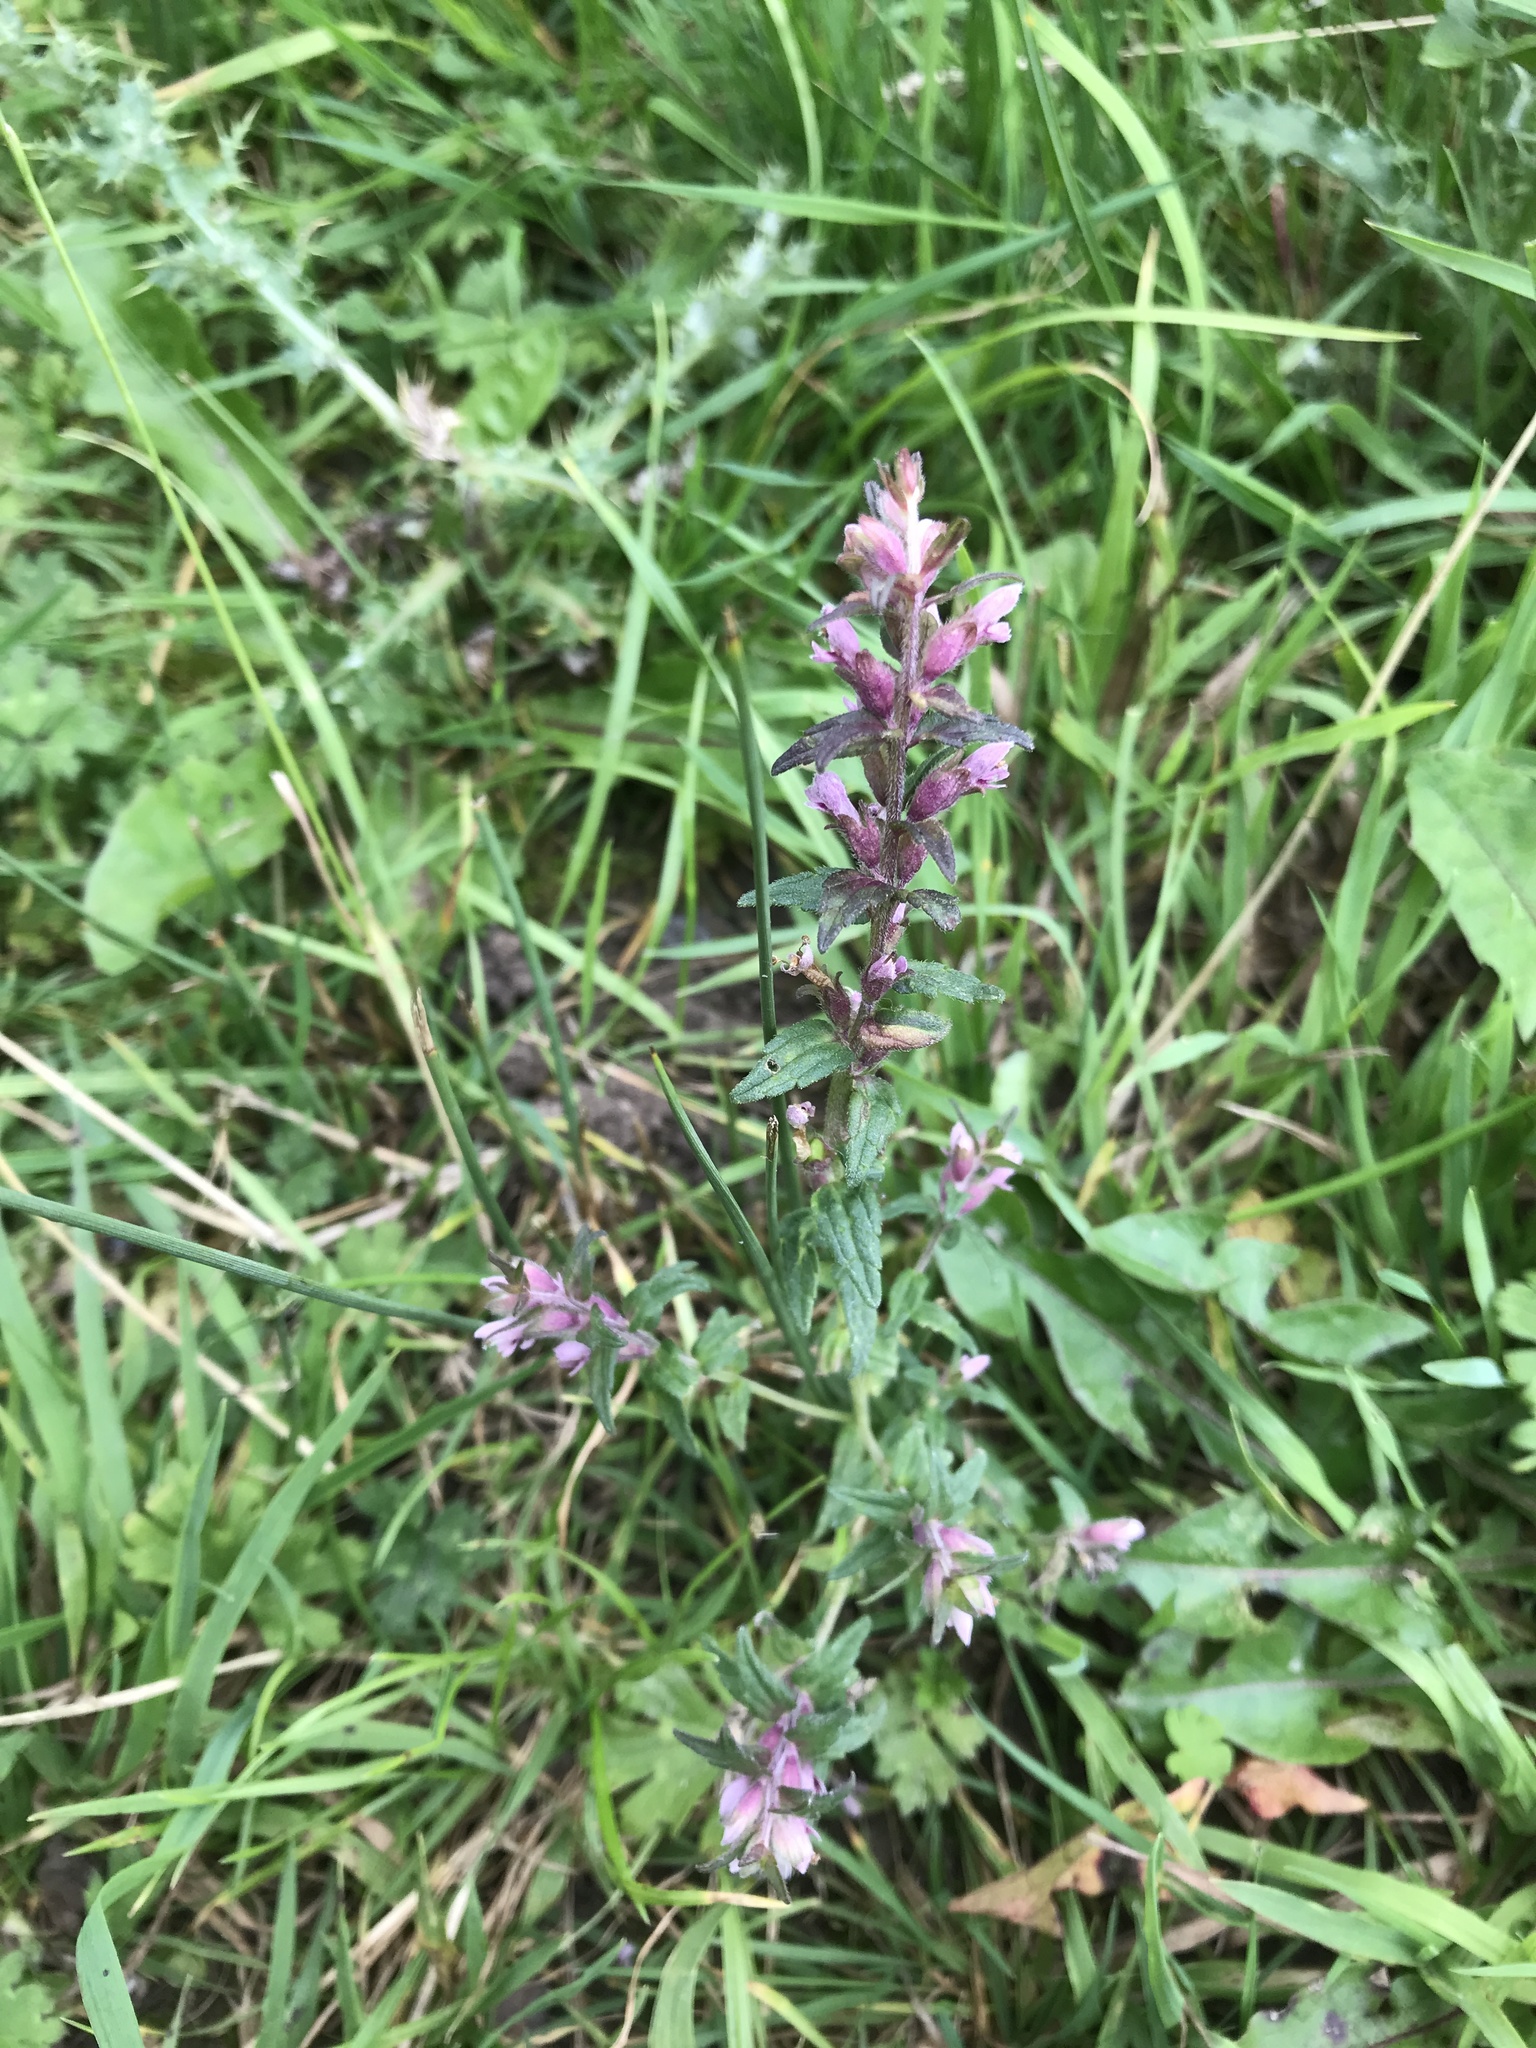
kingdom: Plantae
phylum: Tracheophyta
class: Magnoliopsida
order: Lamiales
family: Orobanchaceae
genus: Odontites
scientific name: Odontites vernus
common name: Red bartsia
